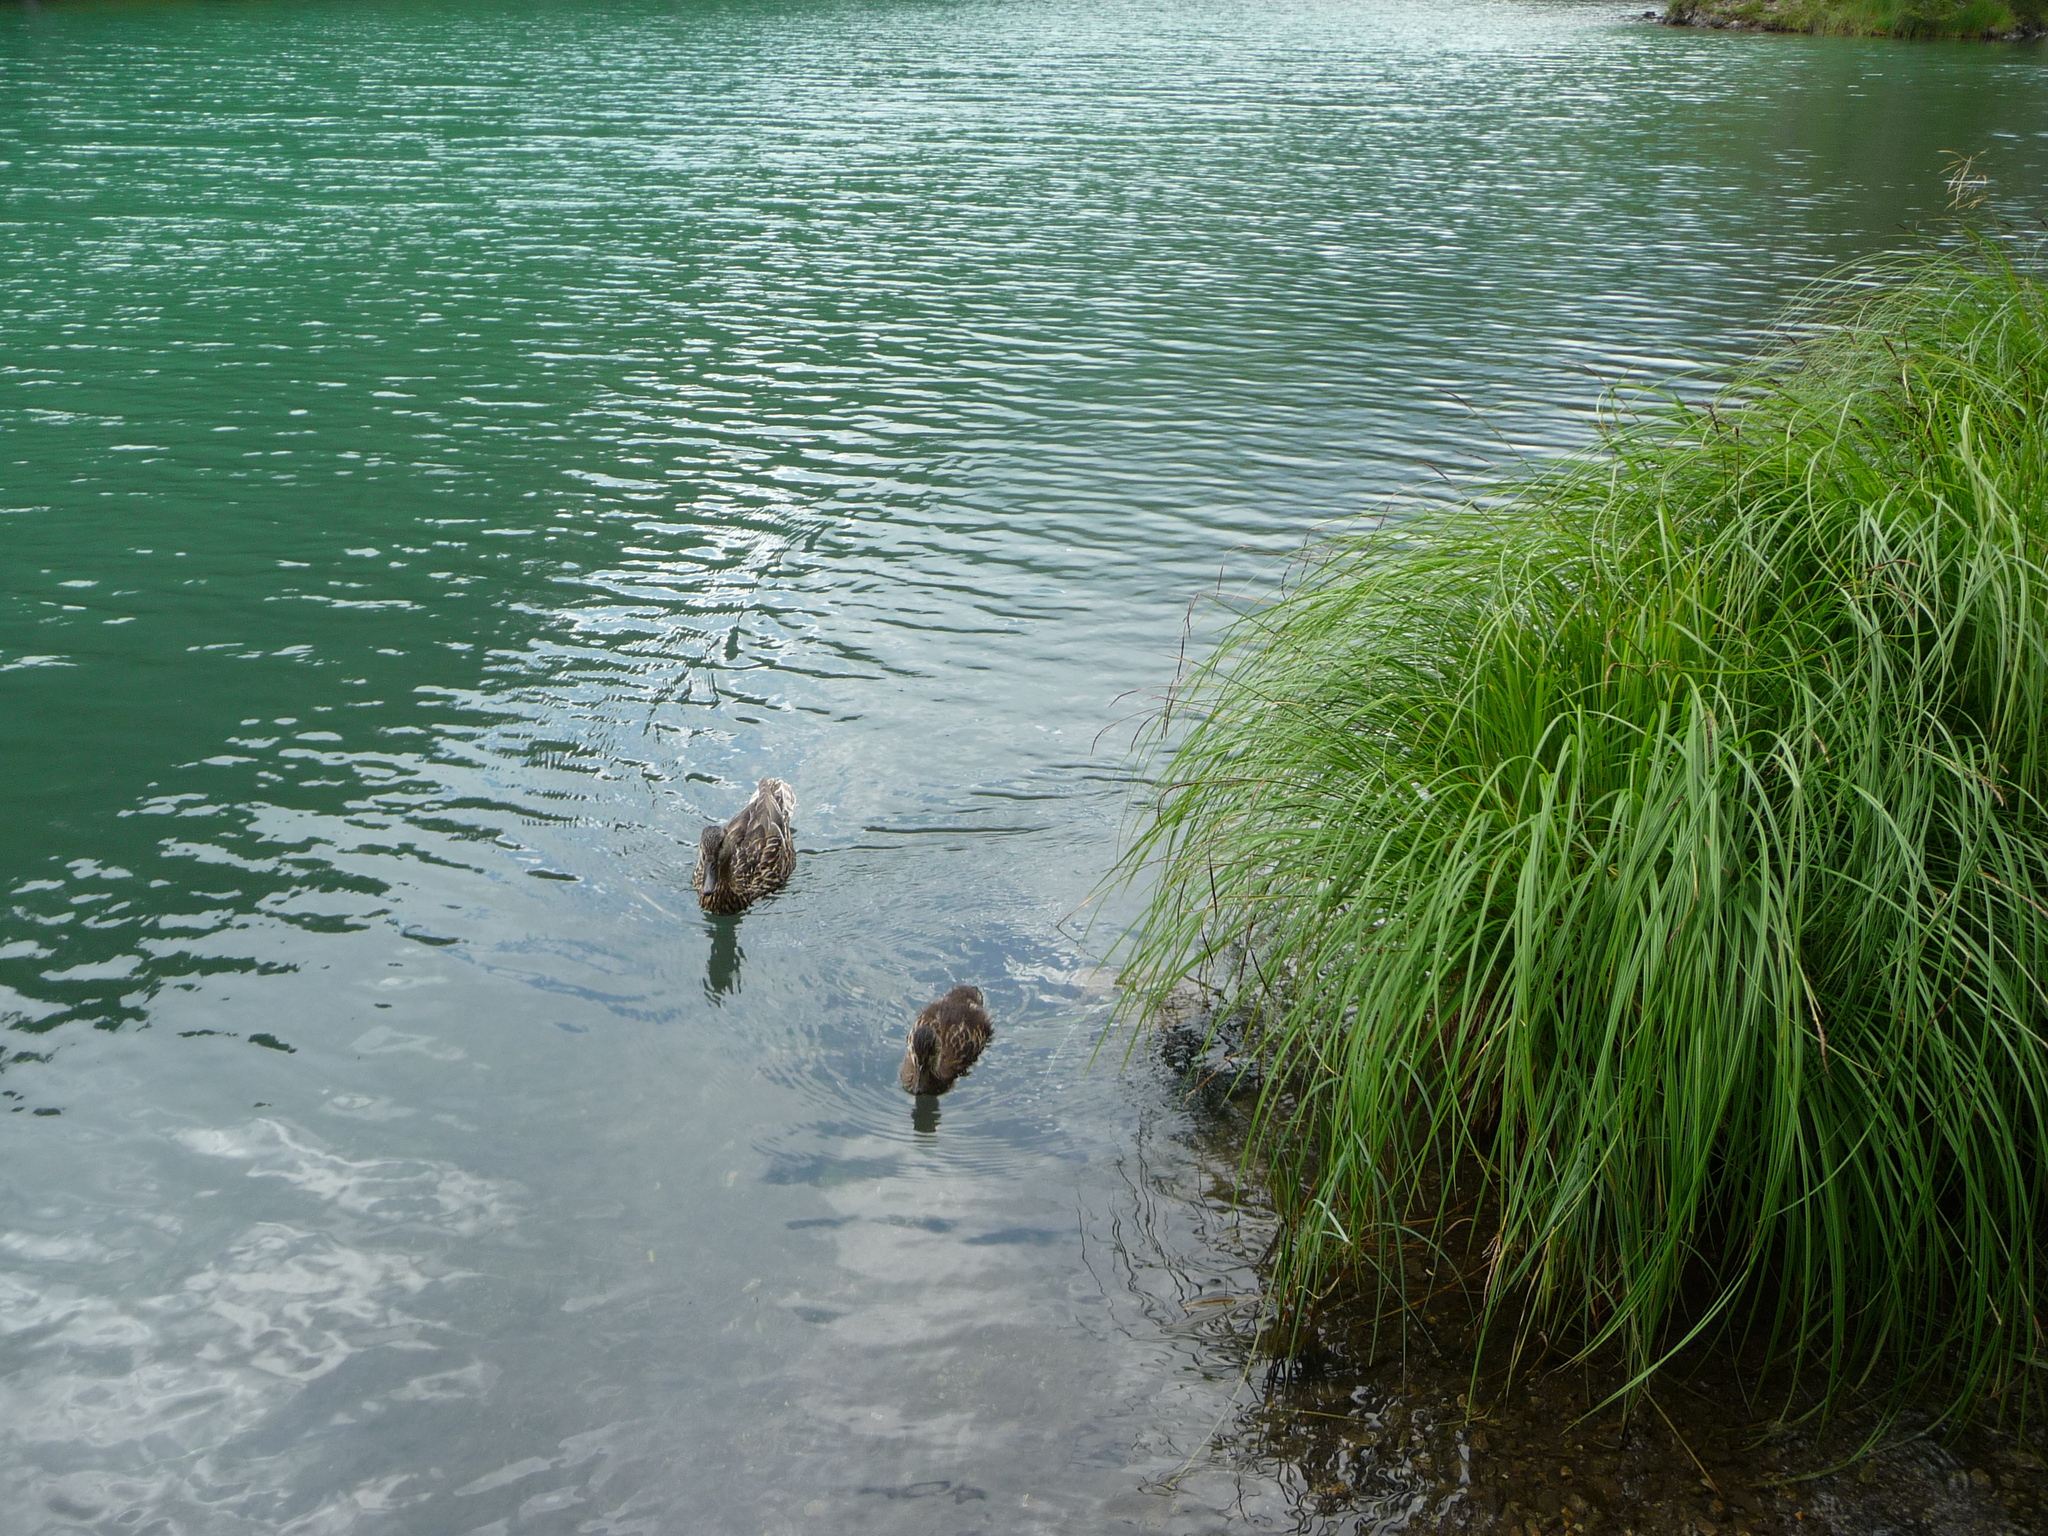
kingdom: Animalia
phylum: Chordata
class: Aves
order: Anseriformes
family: Anatidae
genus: Anas
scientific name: Anas platyrhynchos
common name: Mallard
